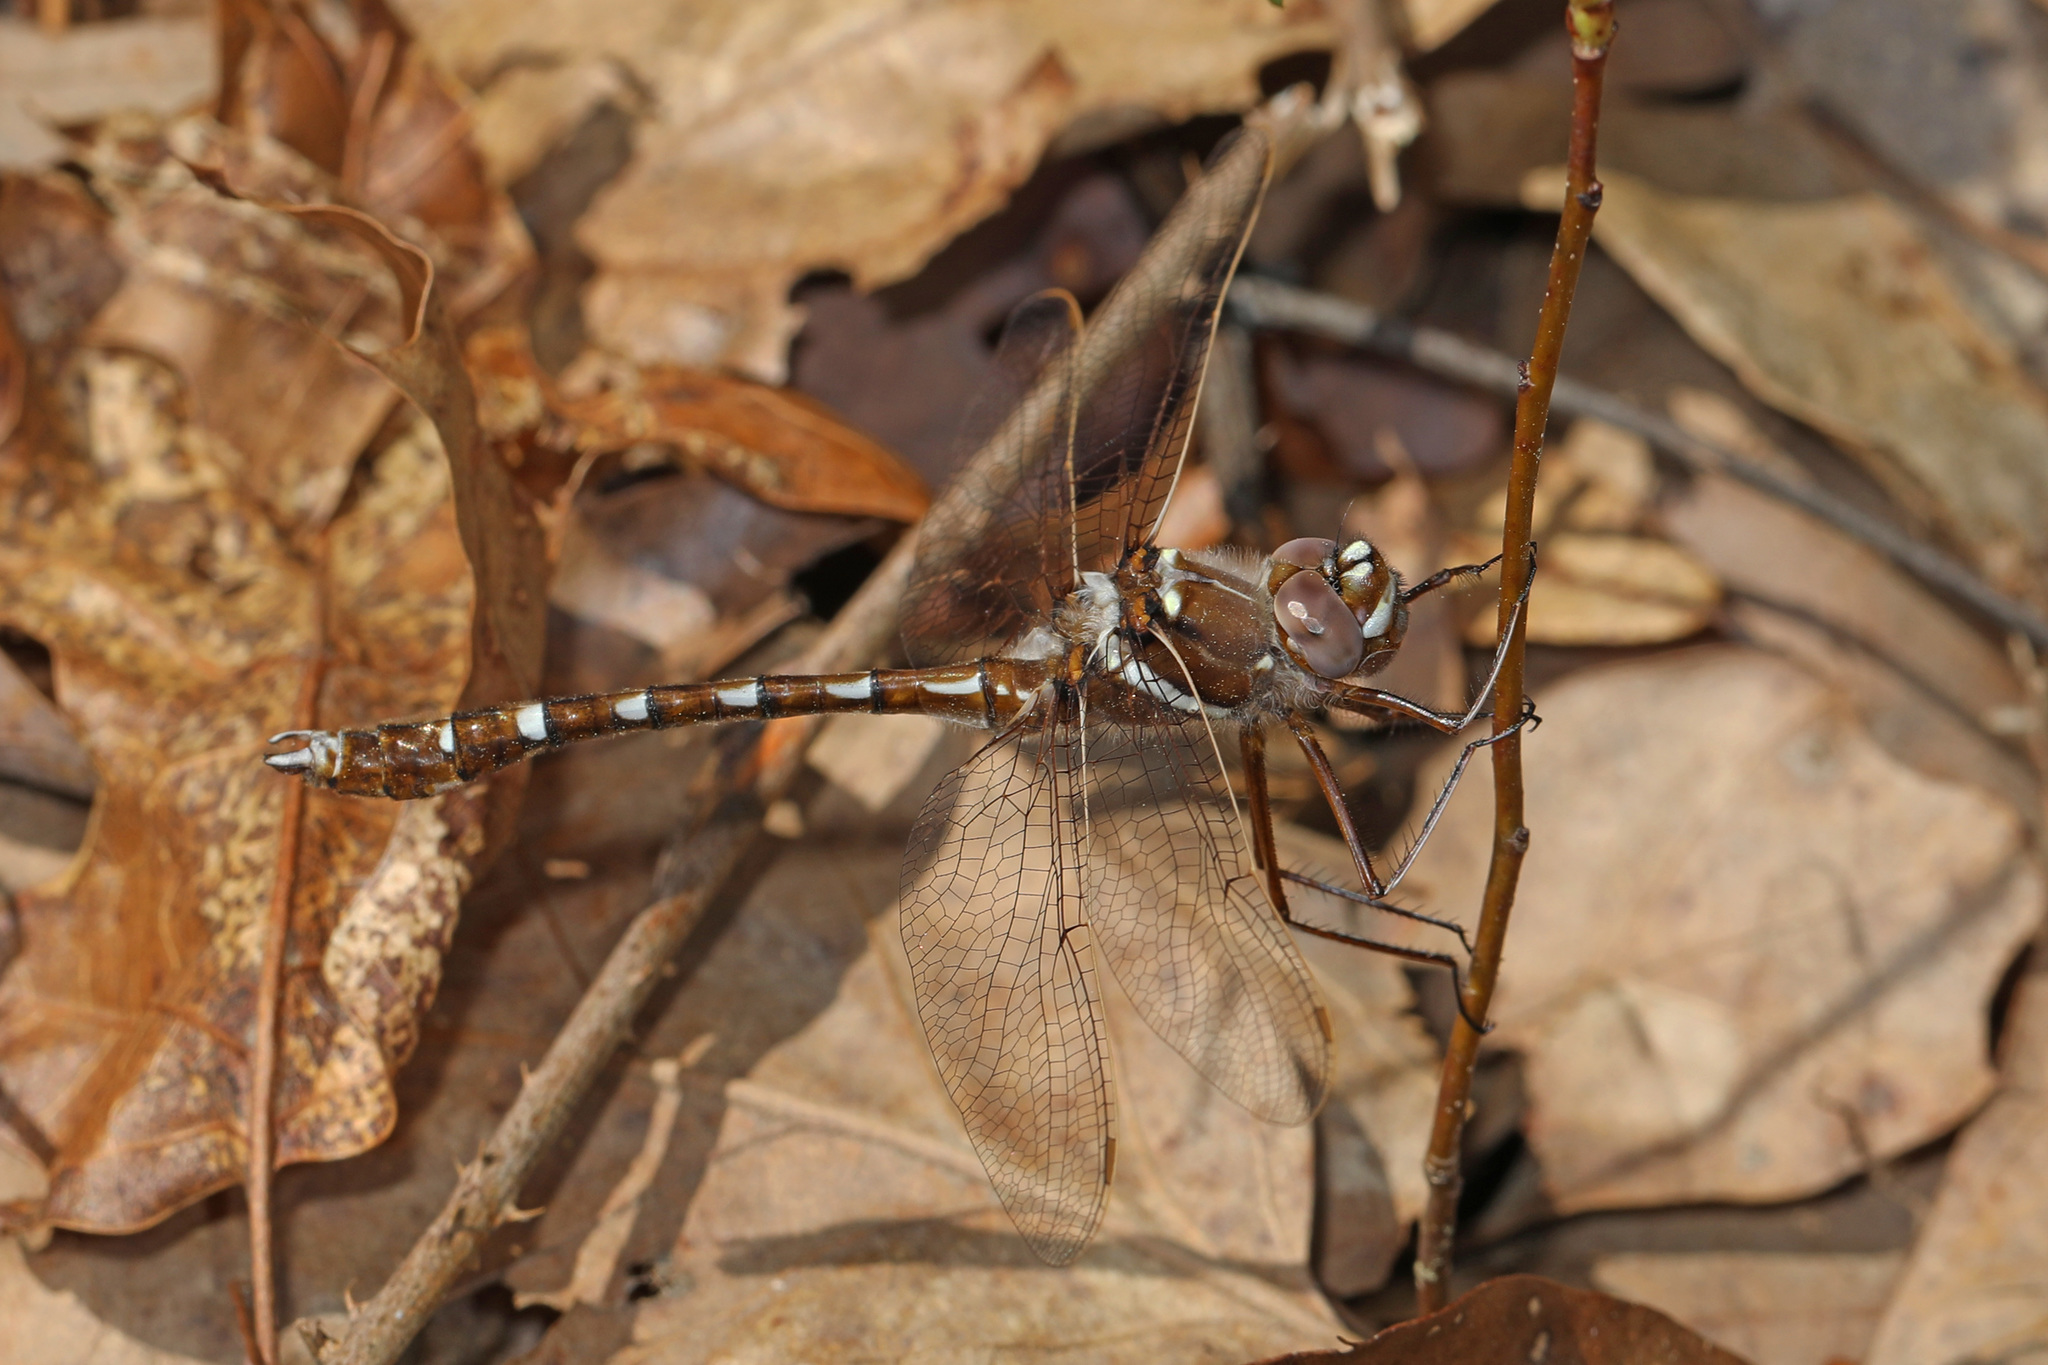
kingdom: Animalia
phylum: Arthropoda
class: Insecta
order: Odonata
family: Macromiidae
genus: Didymops
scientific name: Didymops transversa
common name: Stream cruiser
